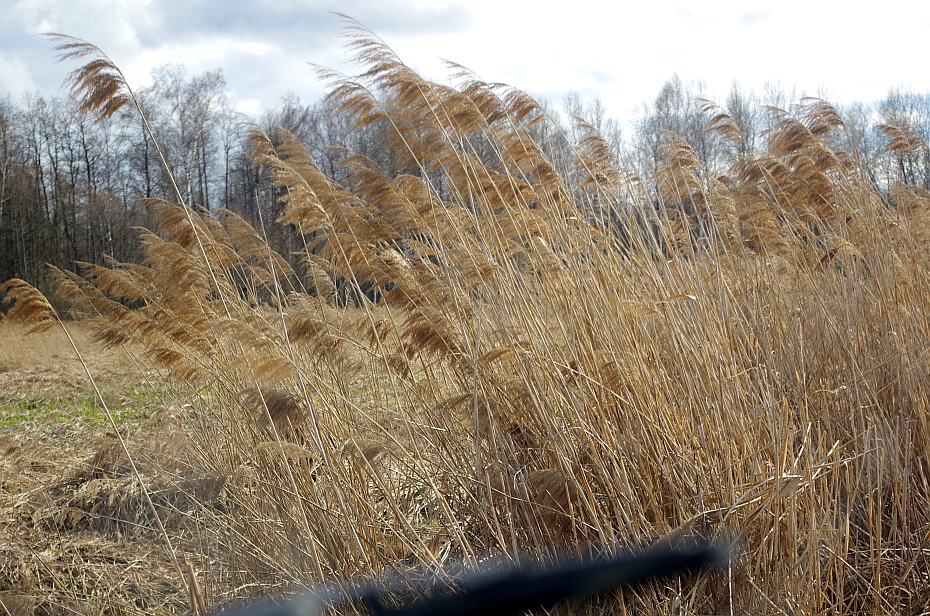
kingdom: Plantae
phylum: Tracheophyta
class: Liliopsida
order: Poales
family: Poaceae
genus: Phragmites
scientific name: Phragmites australis
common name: Common reed
